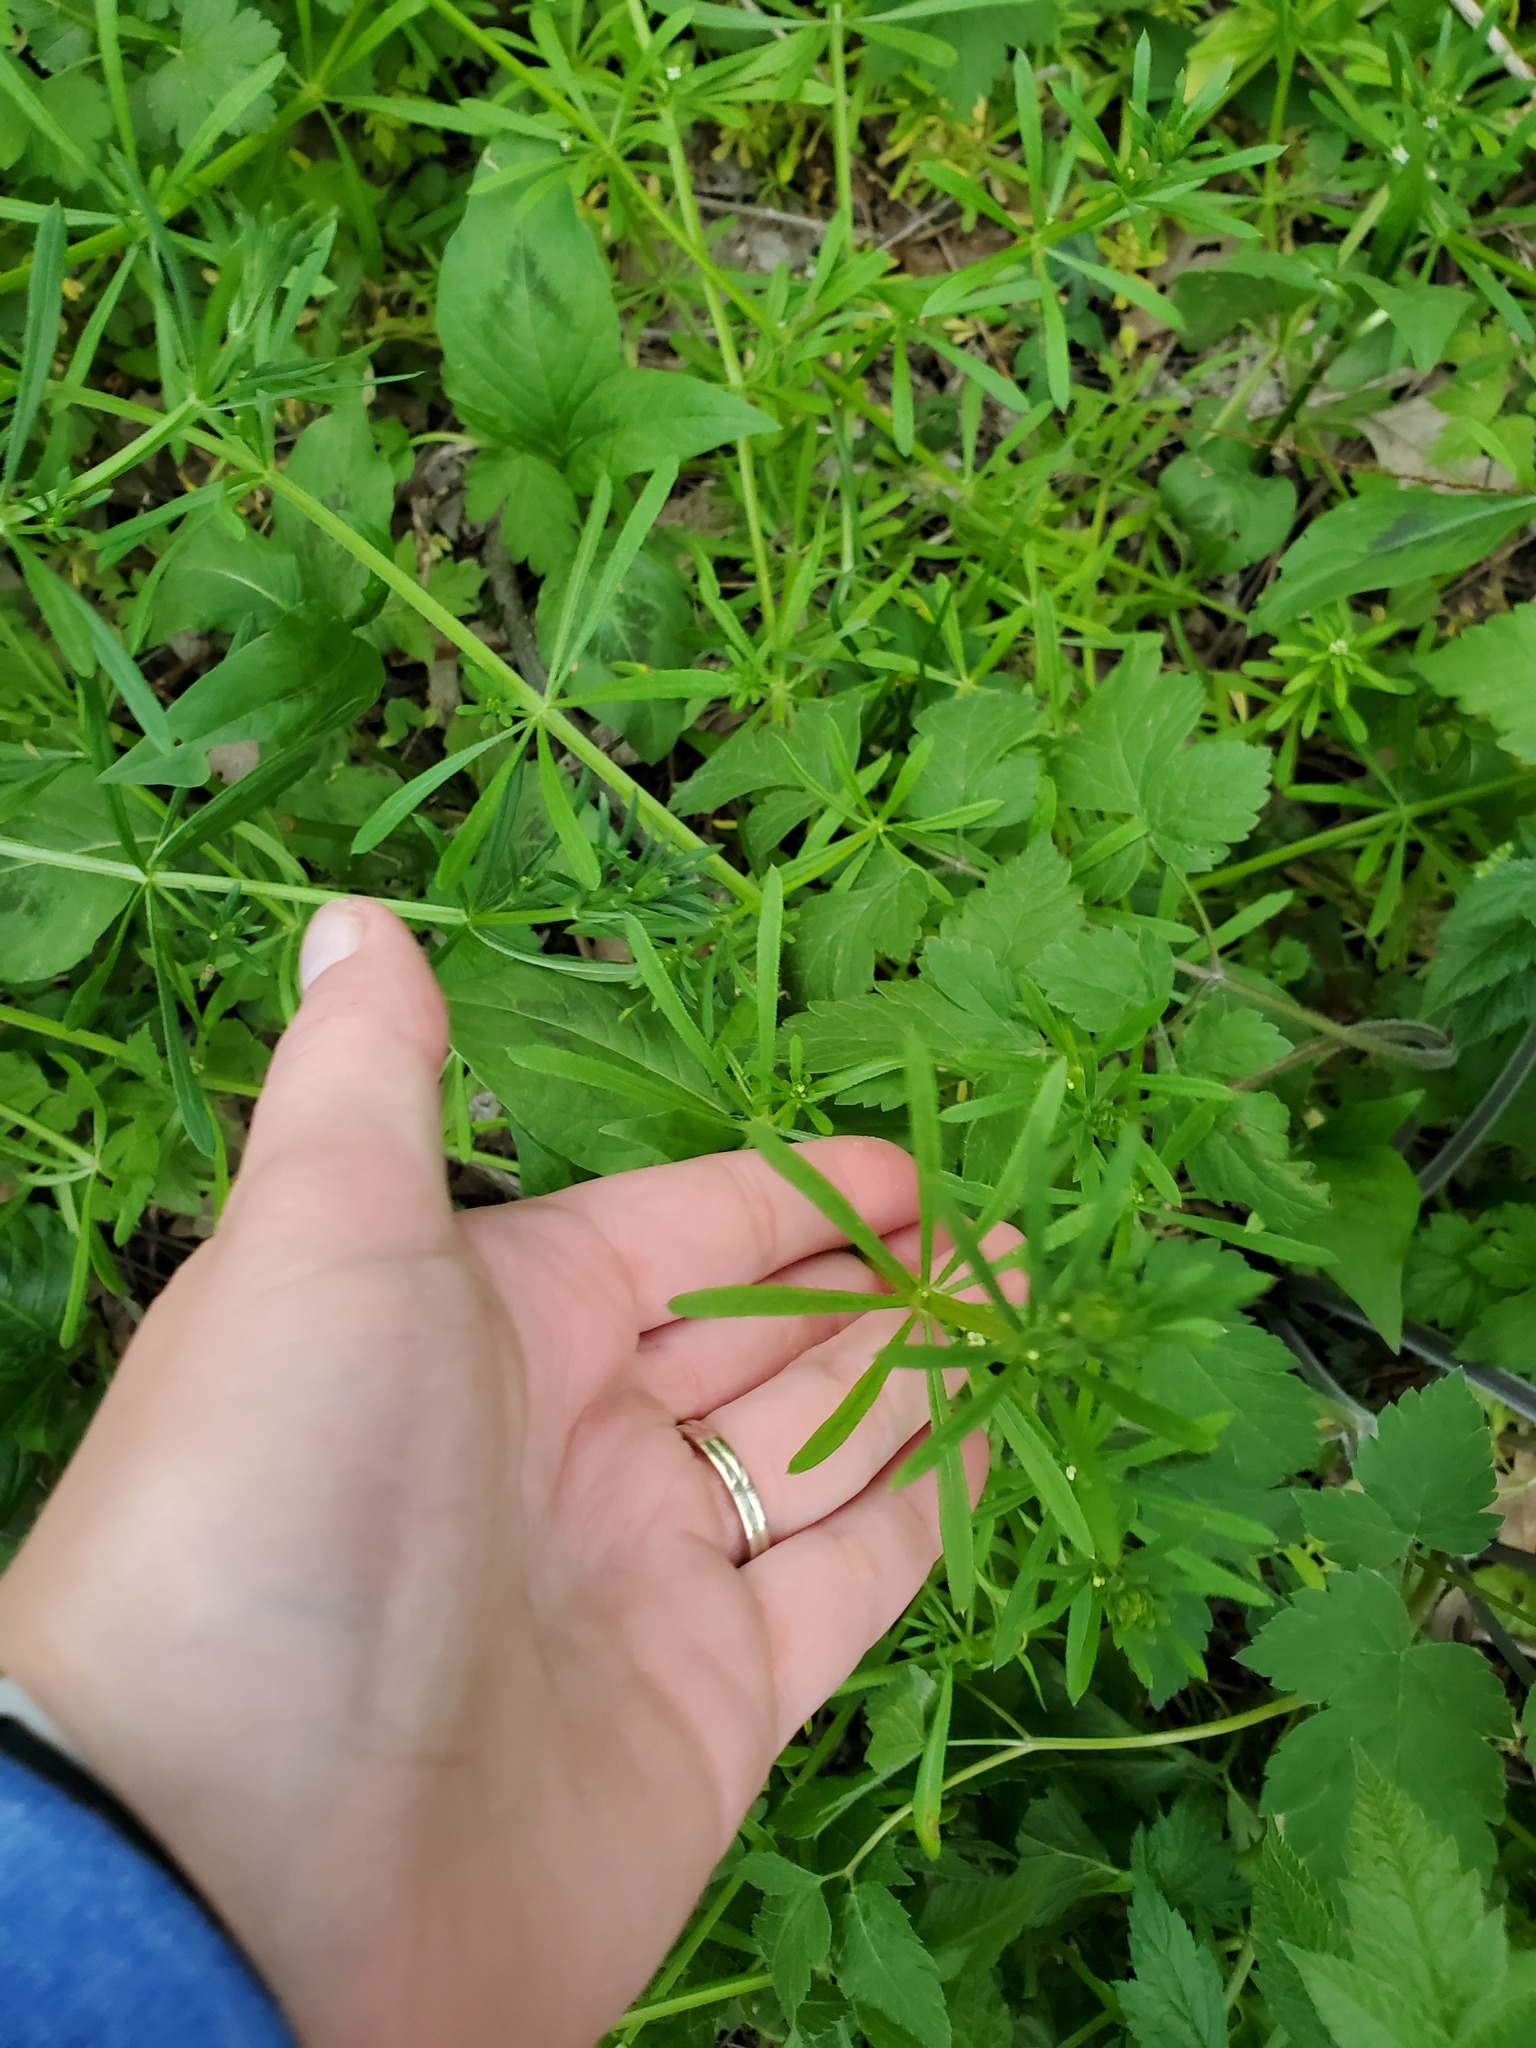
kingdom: Plantae
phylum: Tracheophyta
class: Magnoliopsida
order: Gentianales
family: Rubiaceae
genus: Galium
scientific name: Galium aparine
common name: Cleavers
